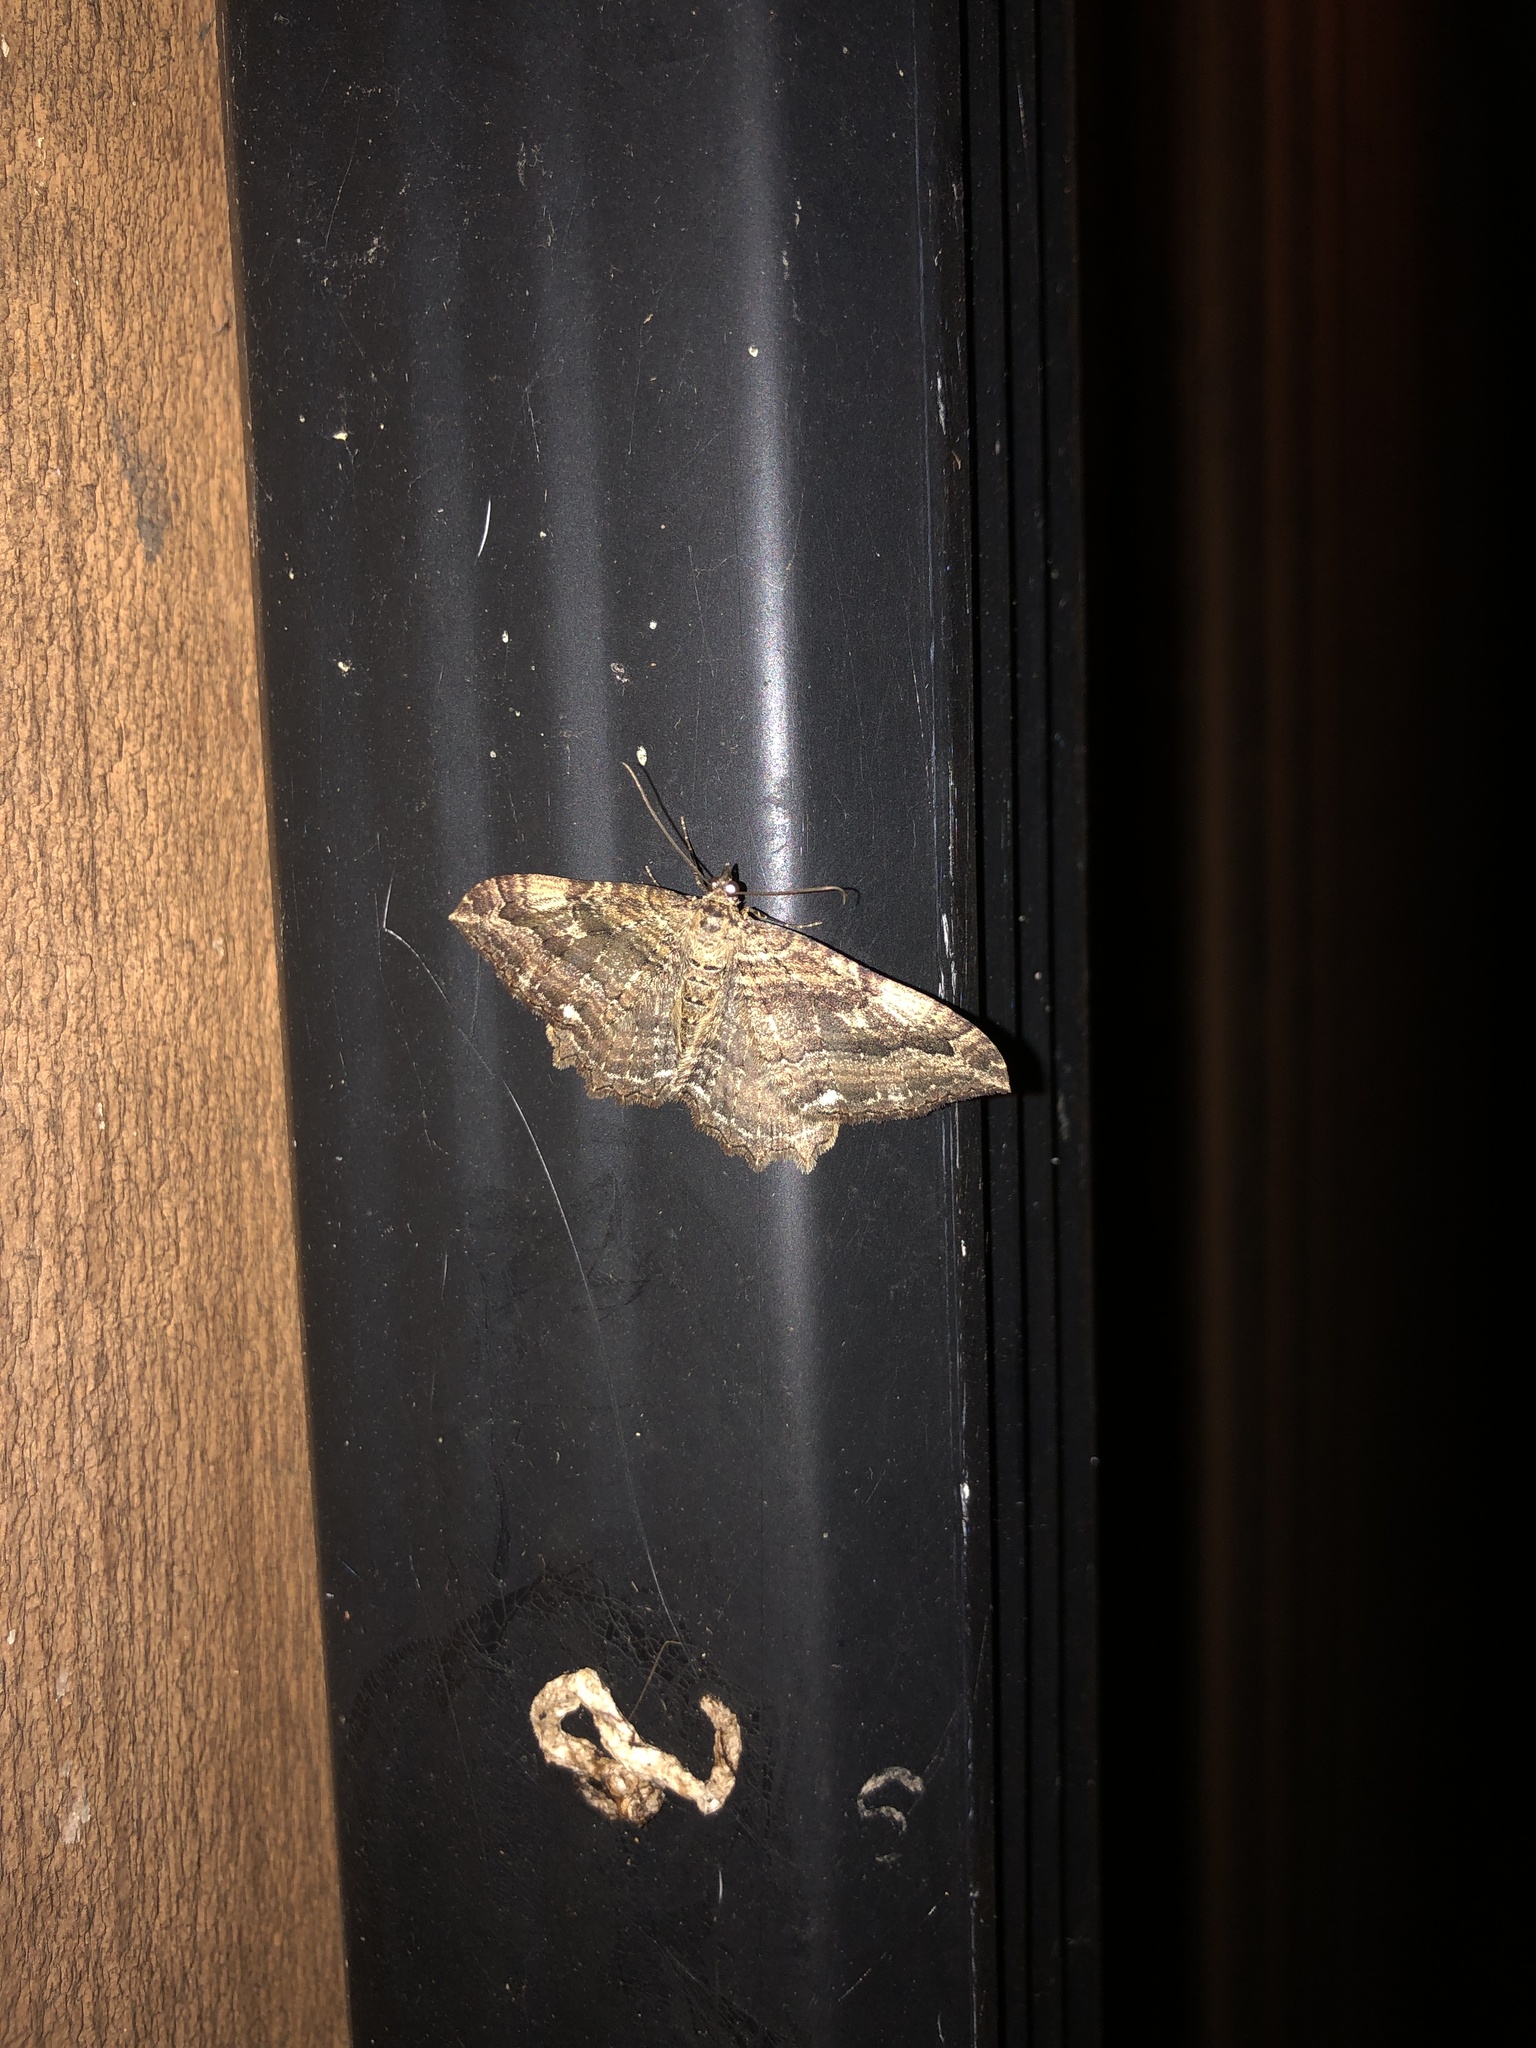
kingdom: Animalia
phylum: Arthropoda
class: Insecta
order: Lepidoptera
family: Geometridae
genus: Rheumaptera
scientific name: Rheumaptera
